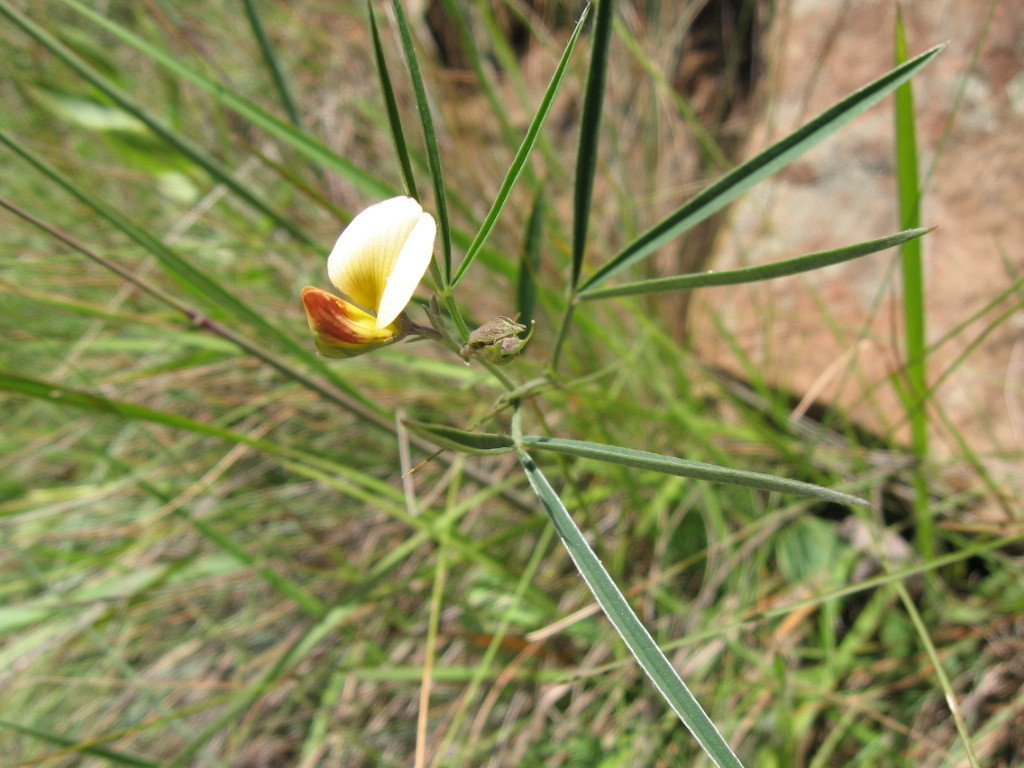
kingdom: Plantae
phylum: Tracheophyta
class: Magnoliopsida
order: Fabales
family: Fabaceae
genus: Argyrolobium
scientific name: Argyrolobium harveyanum
